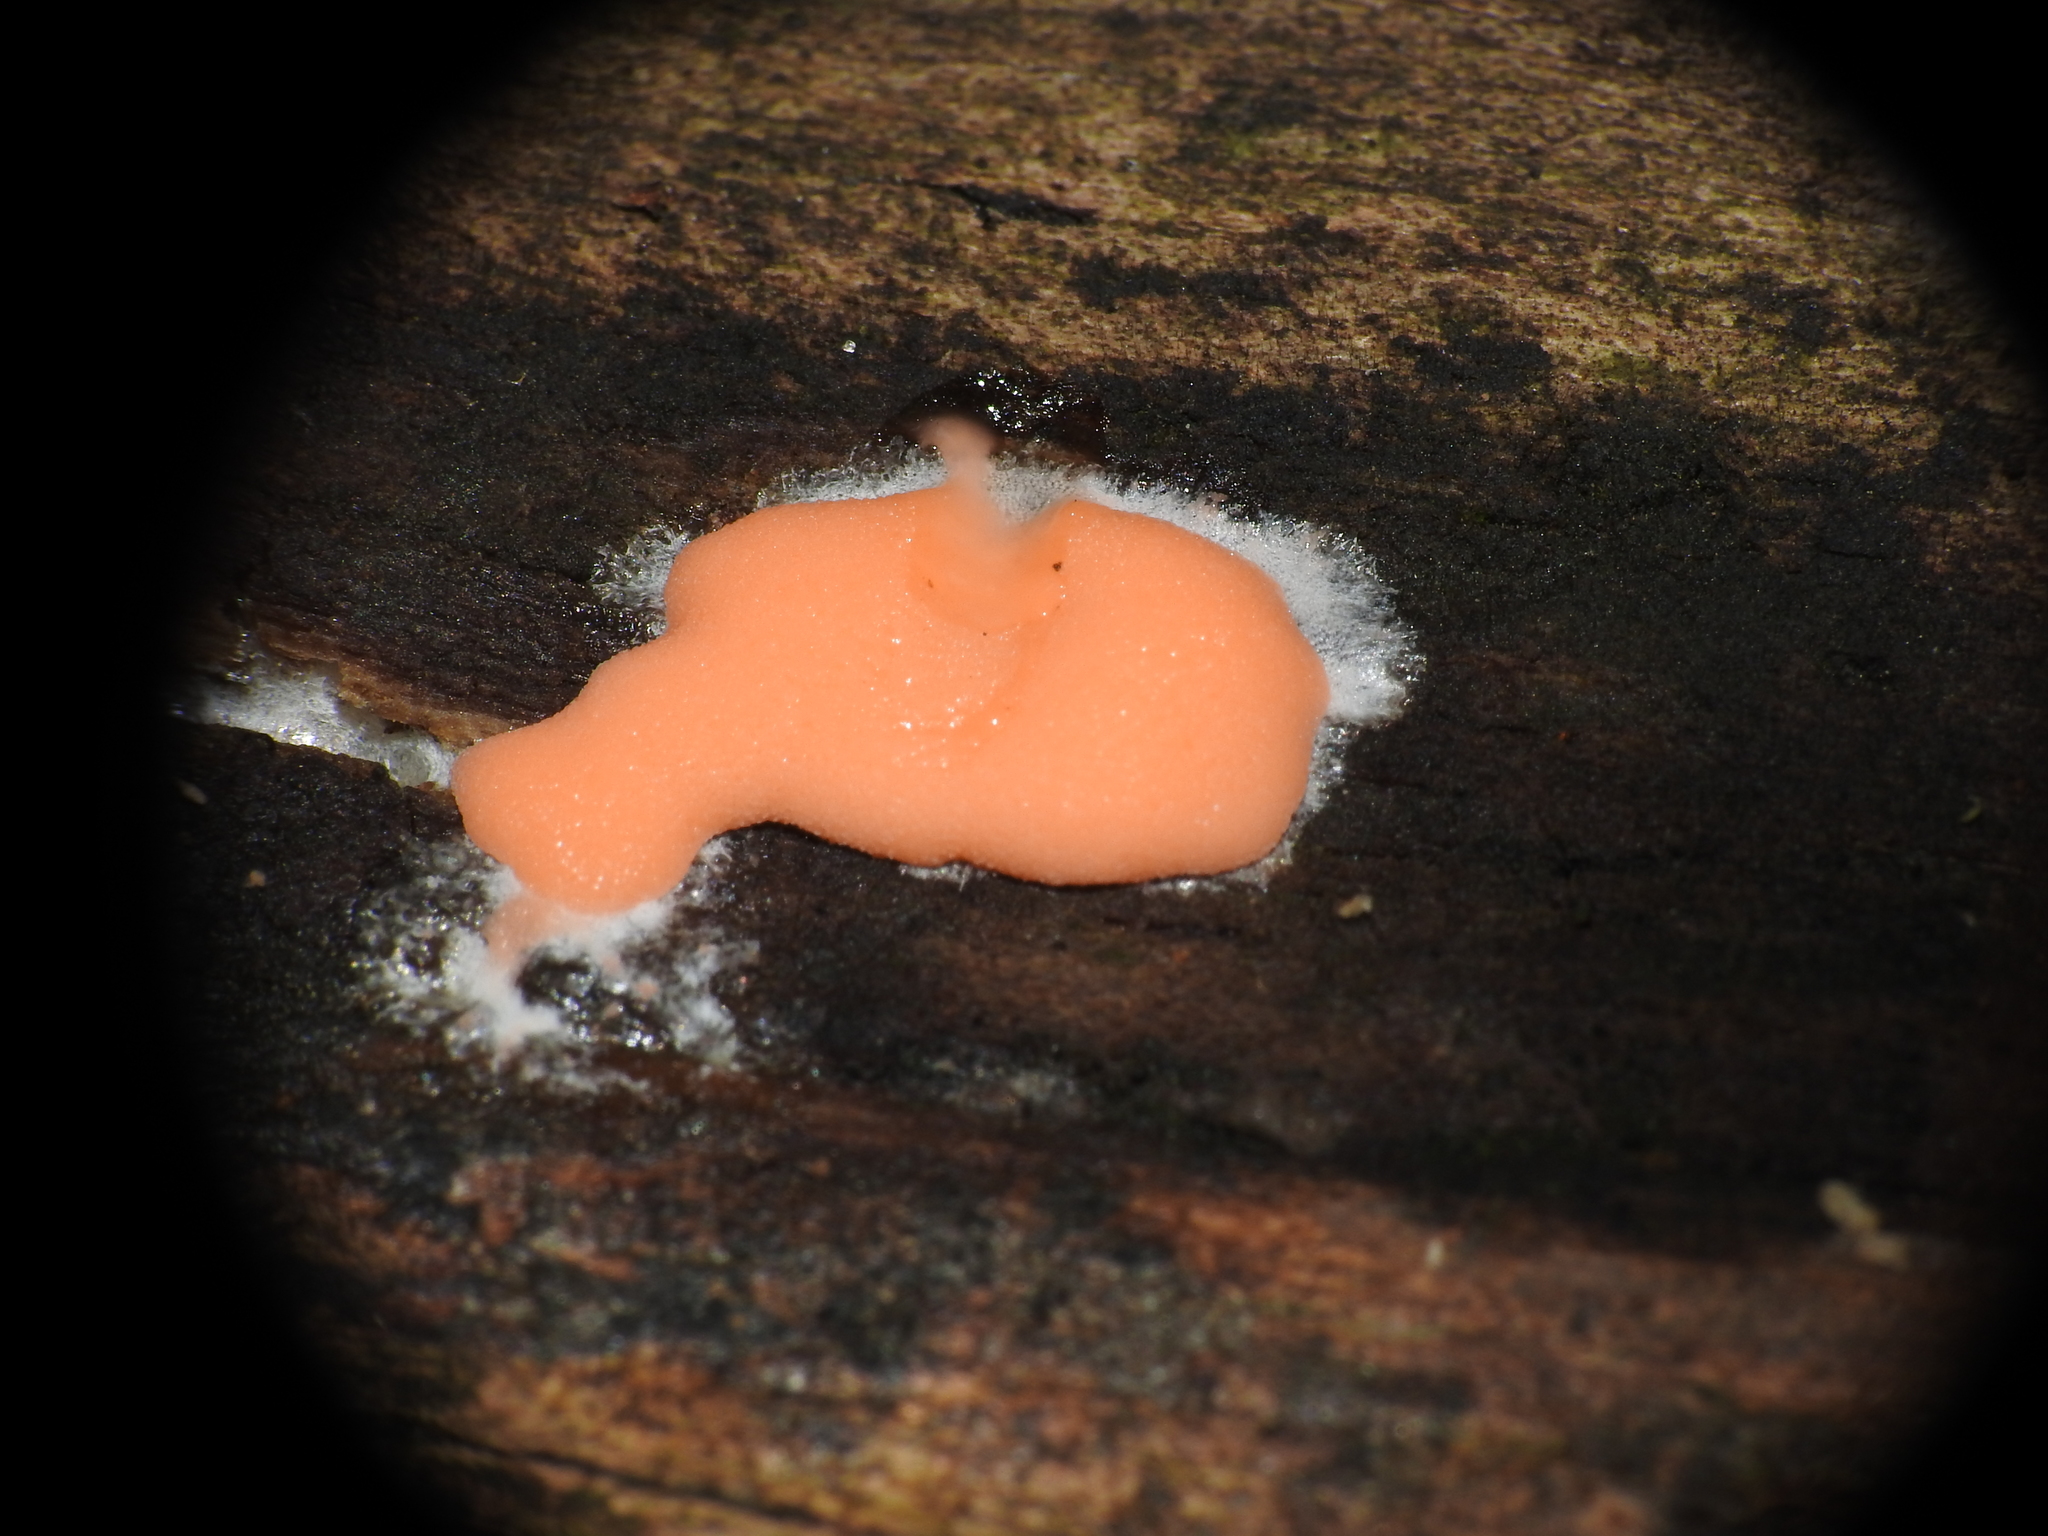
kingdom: Protozoa
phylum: Mycetozoa
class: Myxomycetes
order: Trichiales
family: Dictydiaethaliaceae
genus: Dictydiaethalium
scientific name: Dictydiaethalium plumbeum
